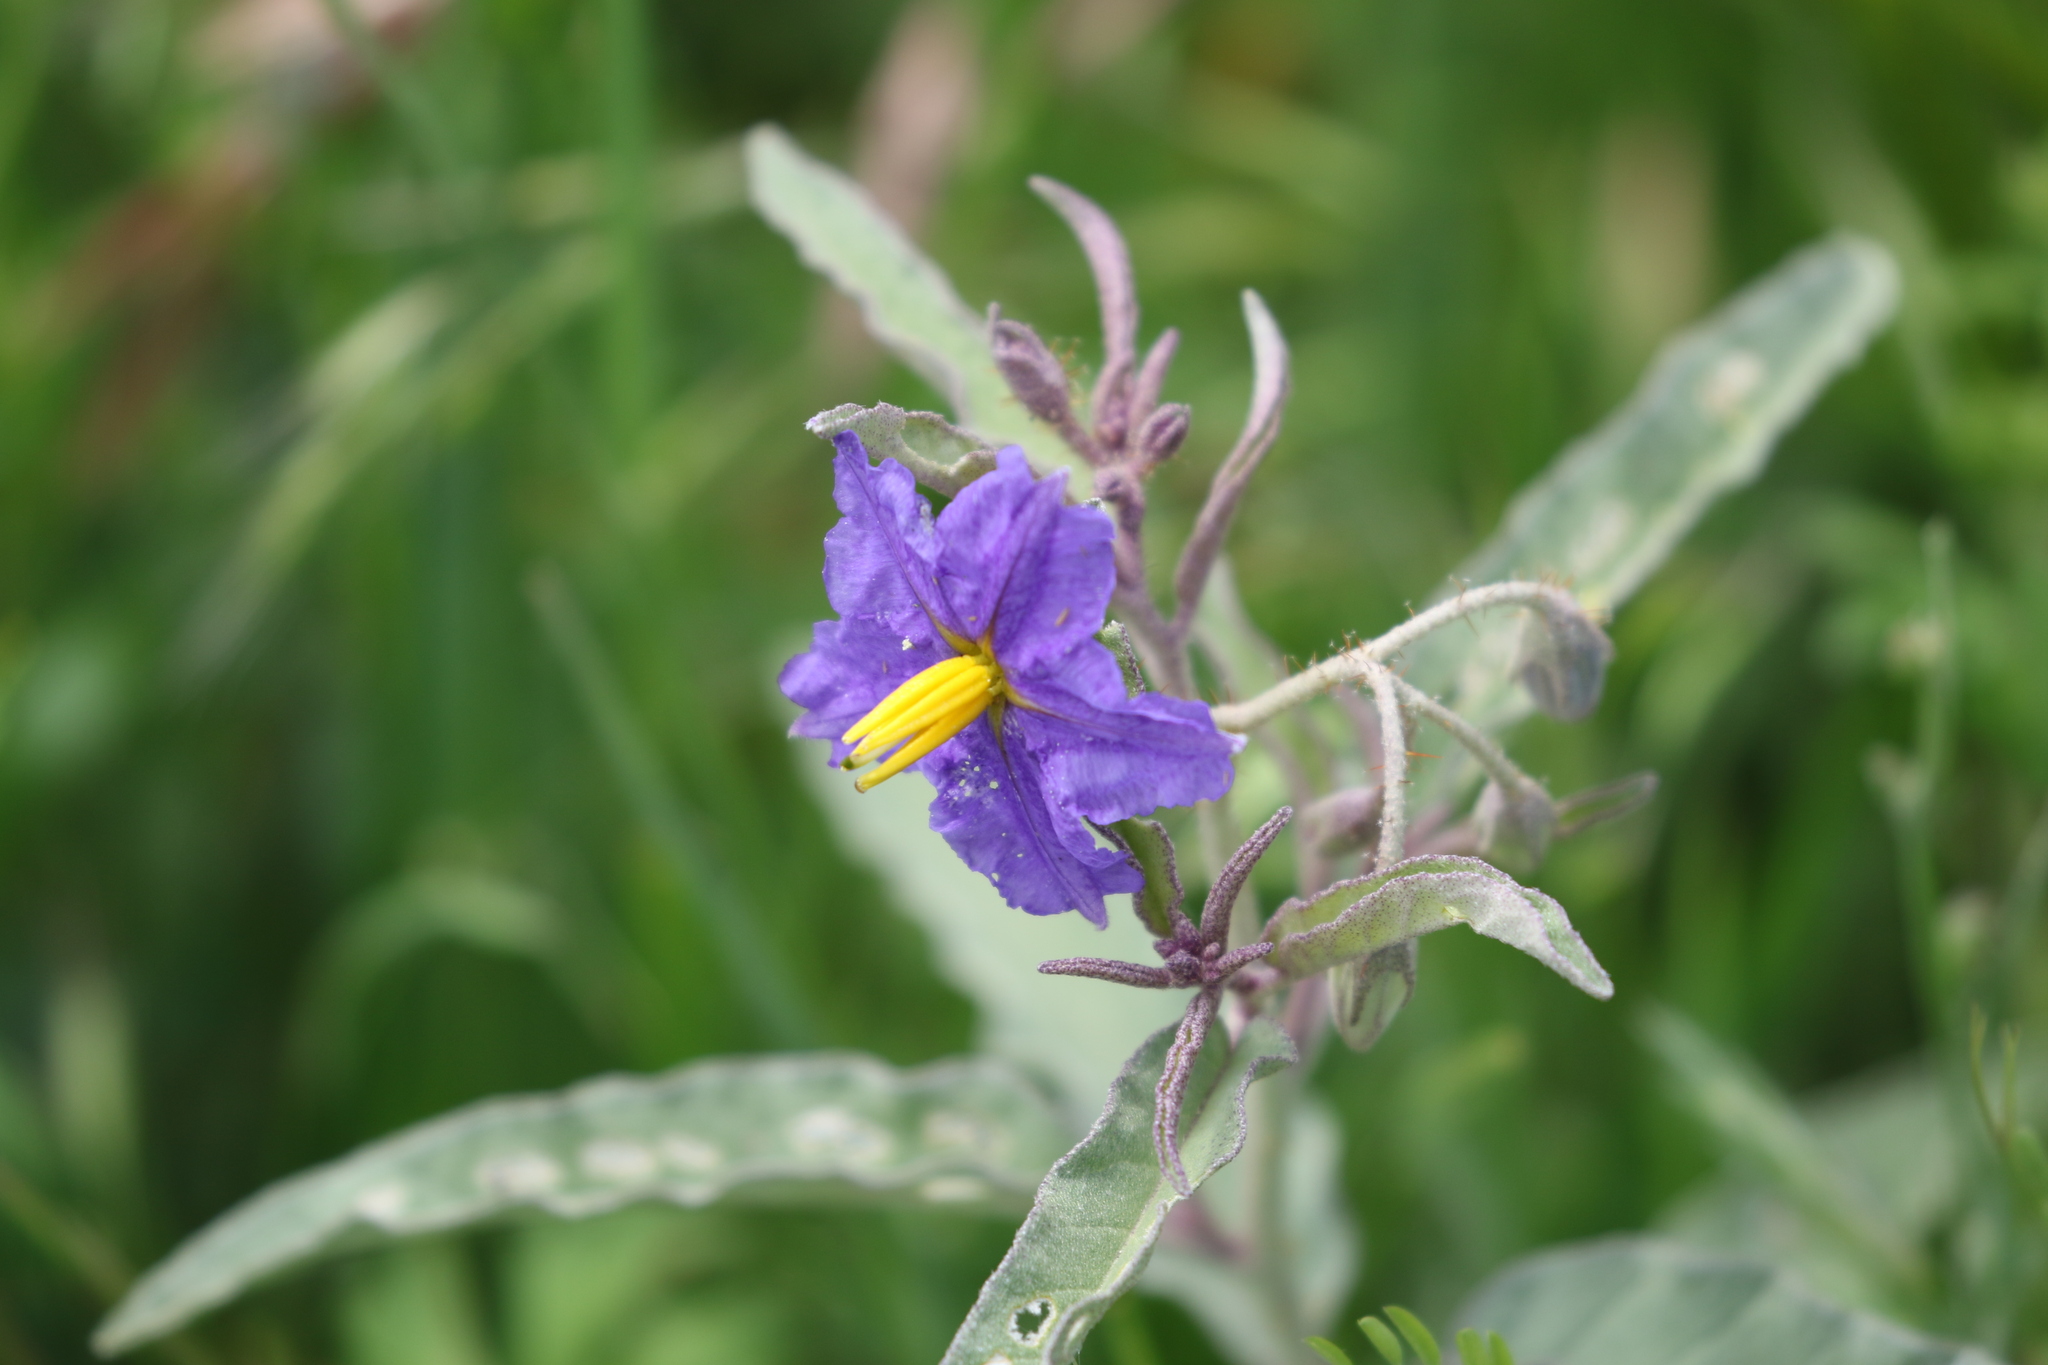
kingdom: Plantae
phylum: Tracheophyta
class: Magnoliopsida
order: Solanales
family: Solanaceae
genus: Solanum
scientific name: Solanum elaeagnifolium
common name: Silverleaf nightshade
